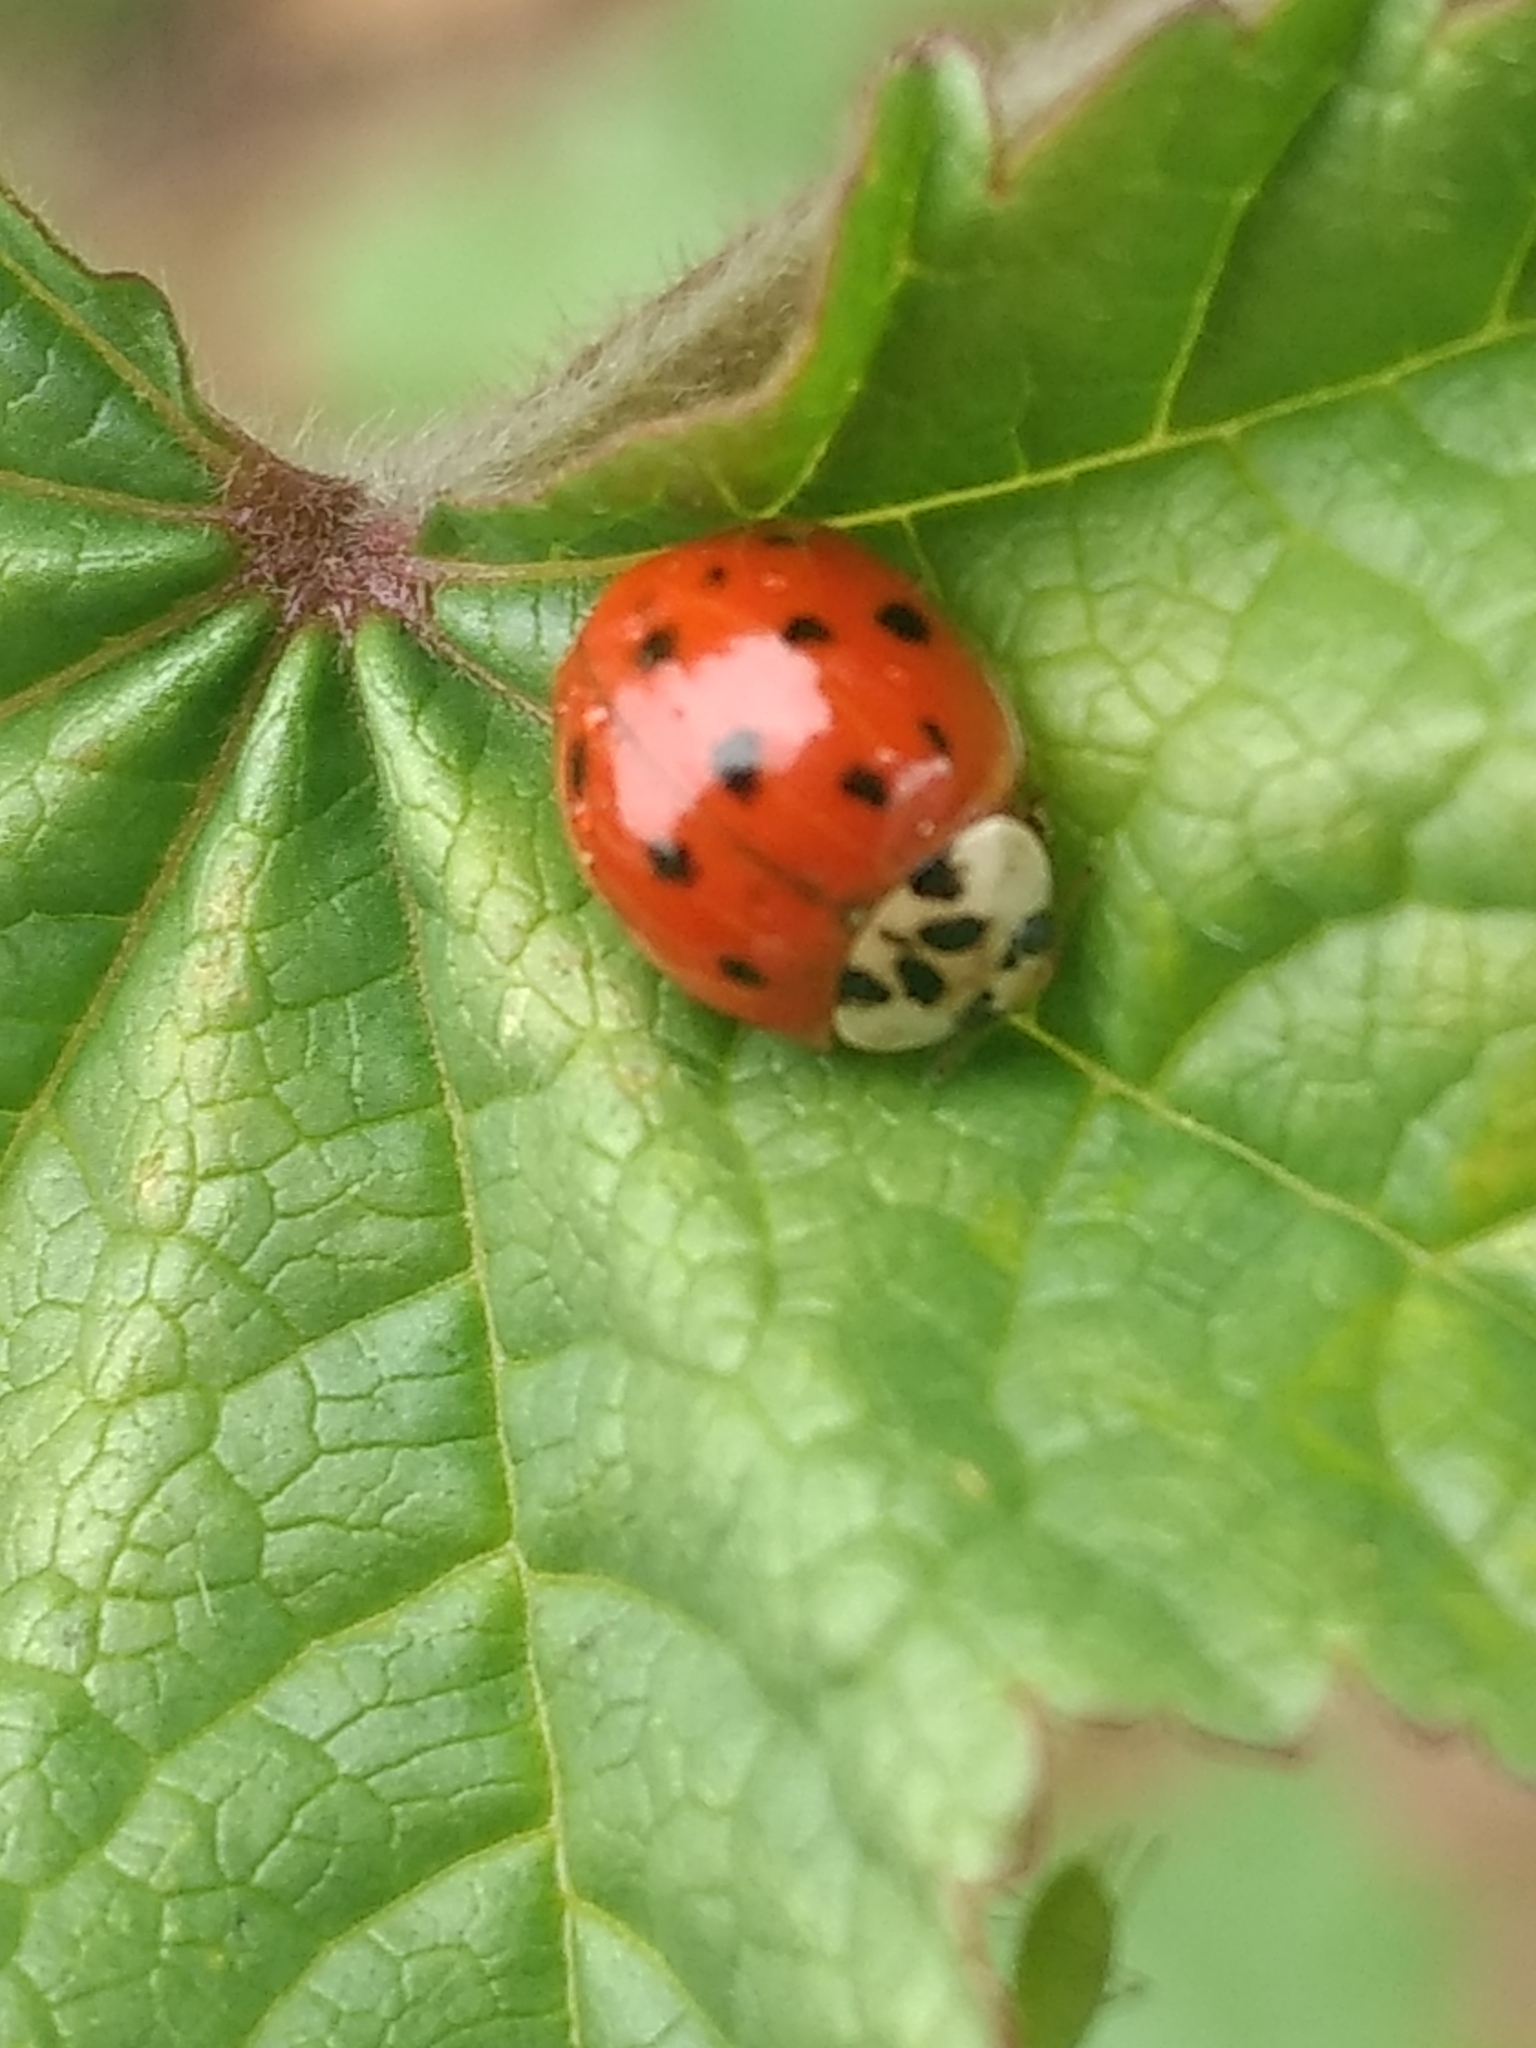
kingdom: Animalia
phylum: Arthropoda
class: Insecta
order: Coleoptera
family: Coccinellidae
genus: Harmonia
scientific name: Harmonia axyridis
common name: Harlequin ladybird
